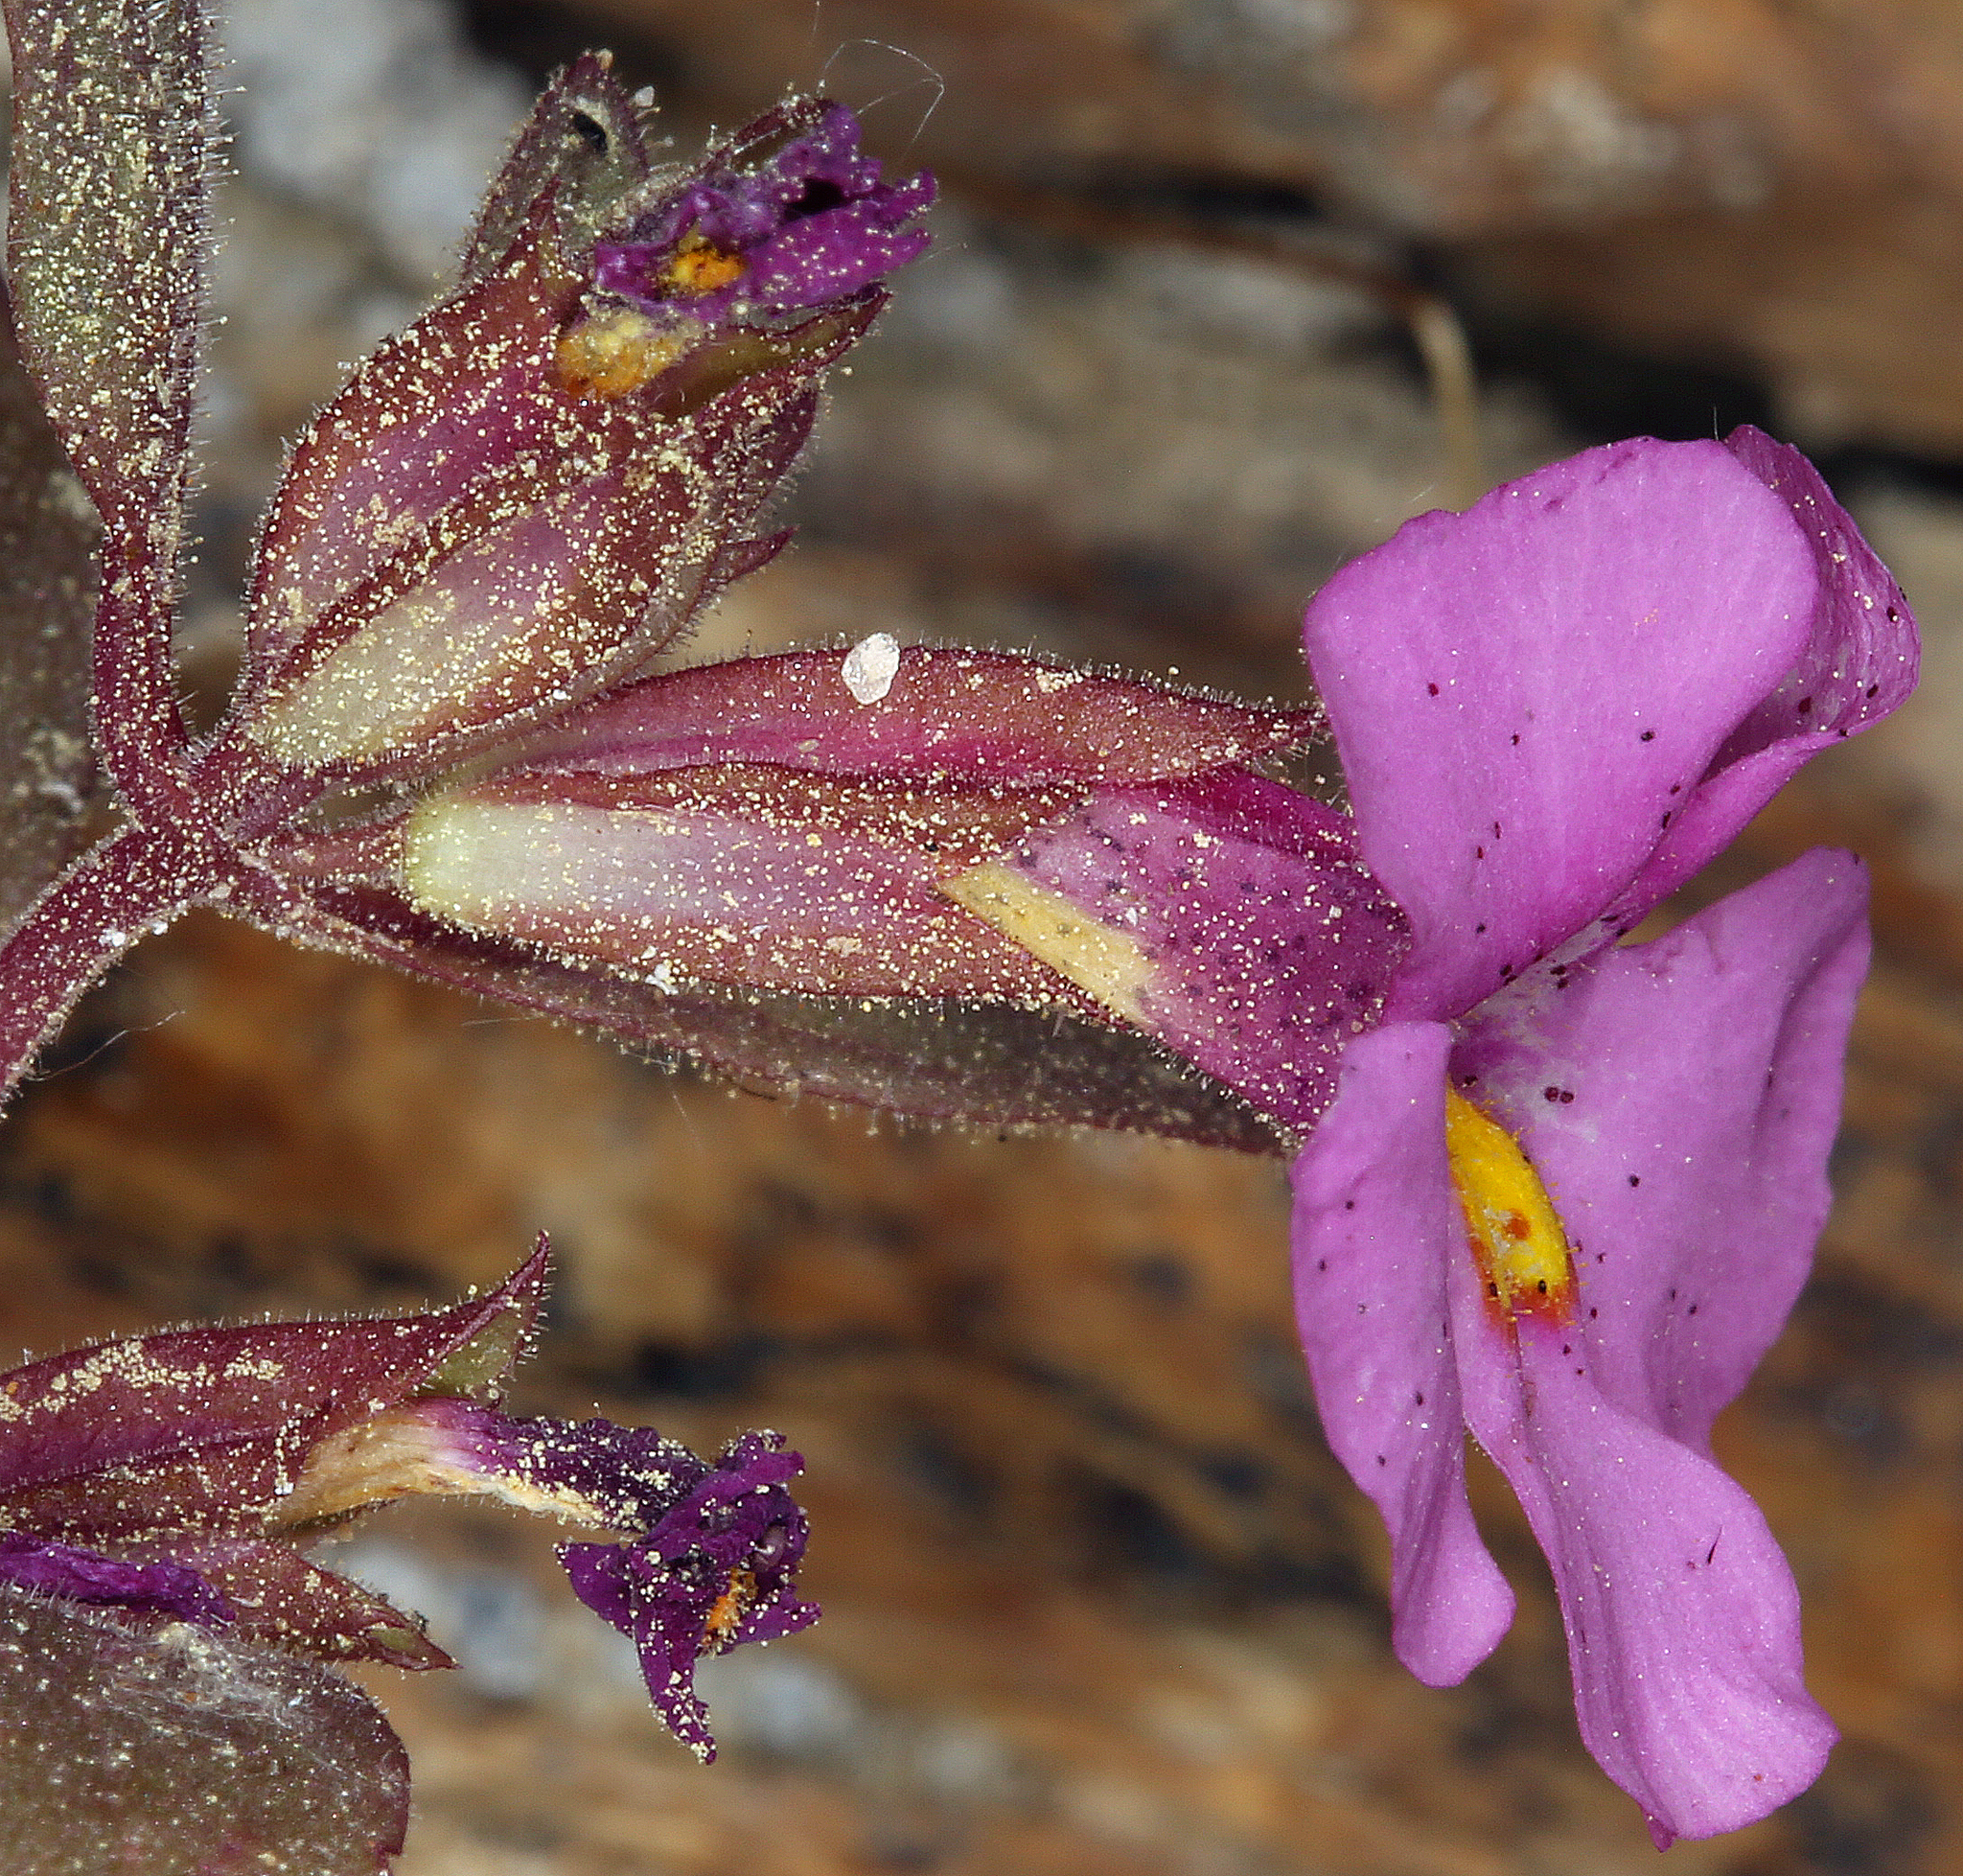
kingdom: Plantae
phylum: Tracheophyta
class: Magnoliopsida
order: Lamiales
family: Phrymaceae
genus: Diplacus
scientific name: Diplacus parryi
